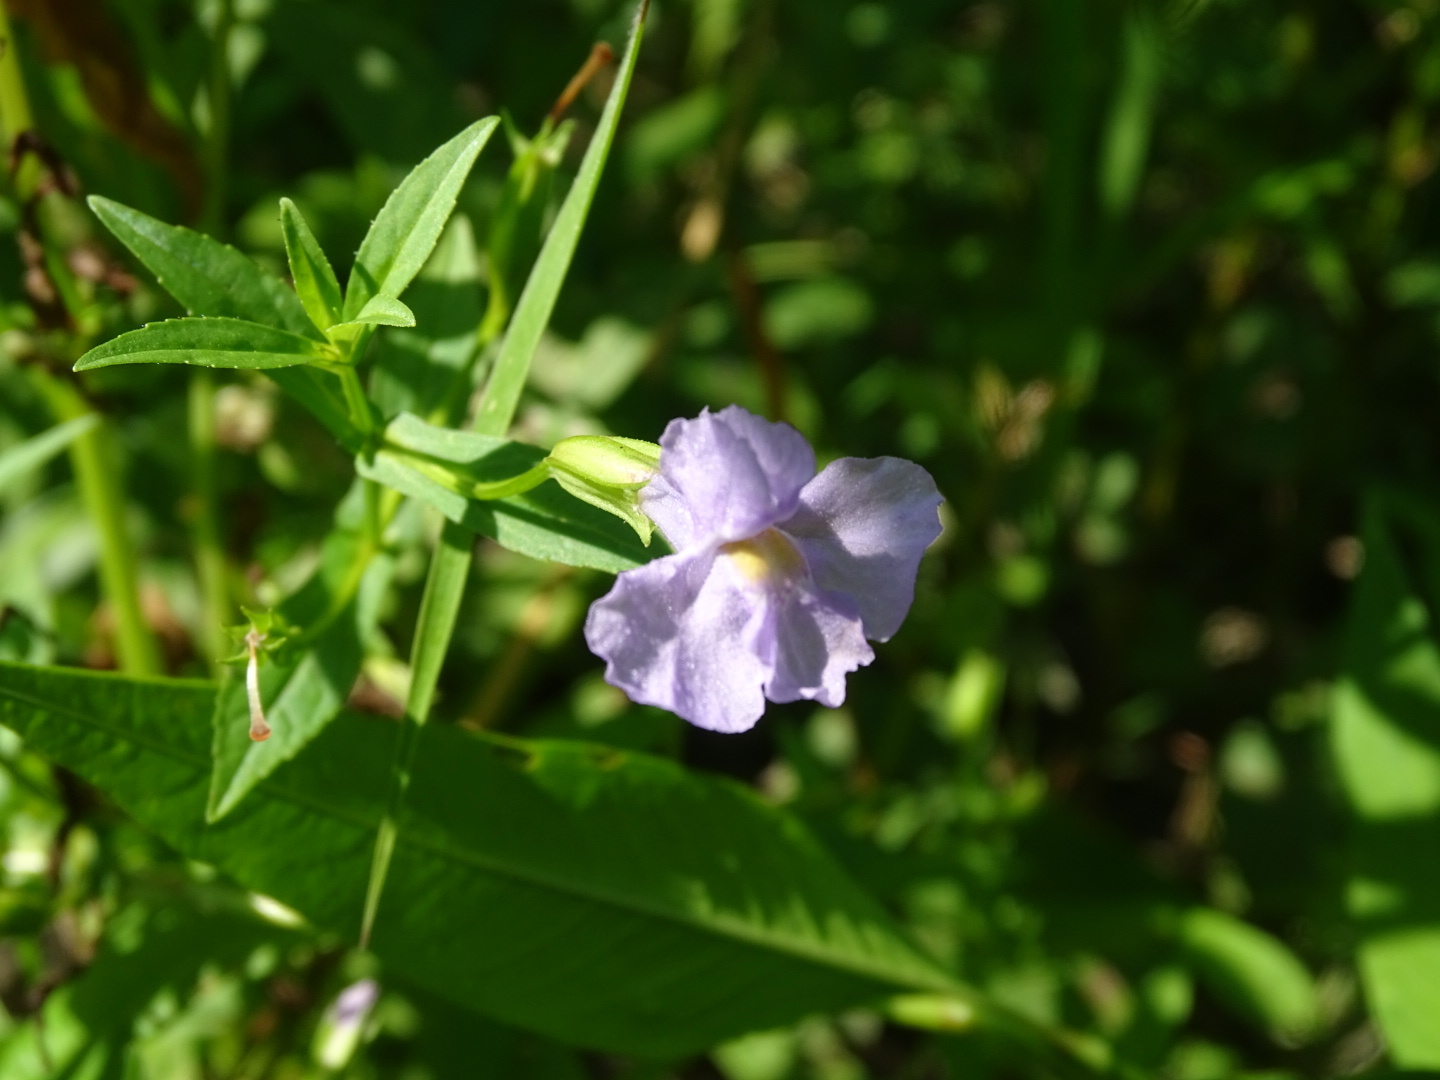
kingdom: Plantae
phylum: Tracheophyta
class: Magnoliopsida
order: Lamiales
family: Phrymaceae
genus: Mimulus
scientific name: Mimulus ringens
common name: Allegheny monkeyflower
